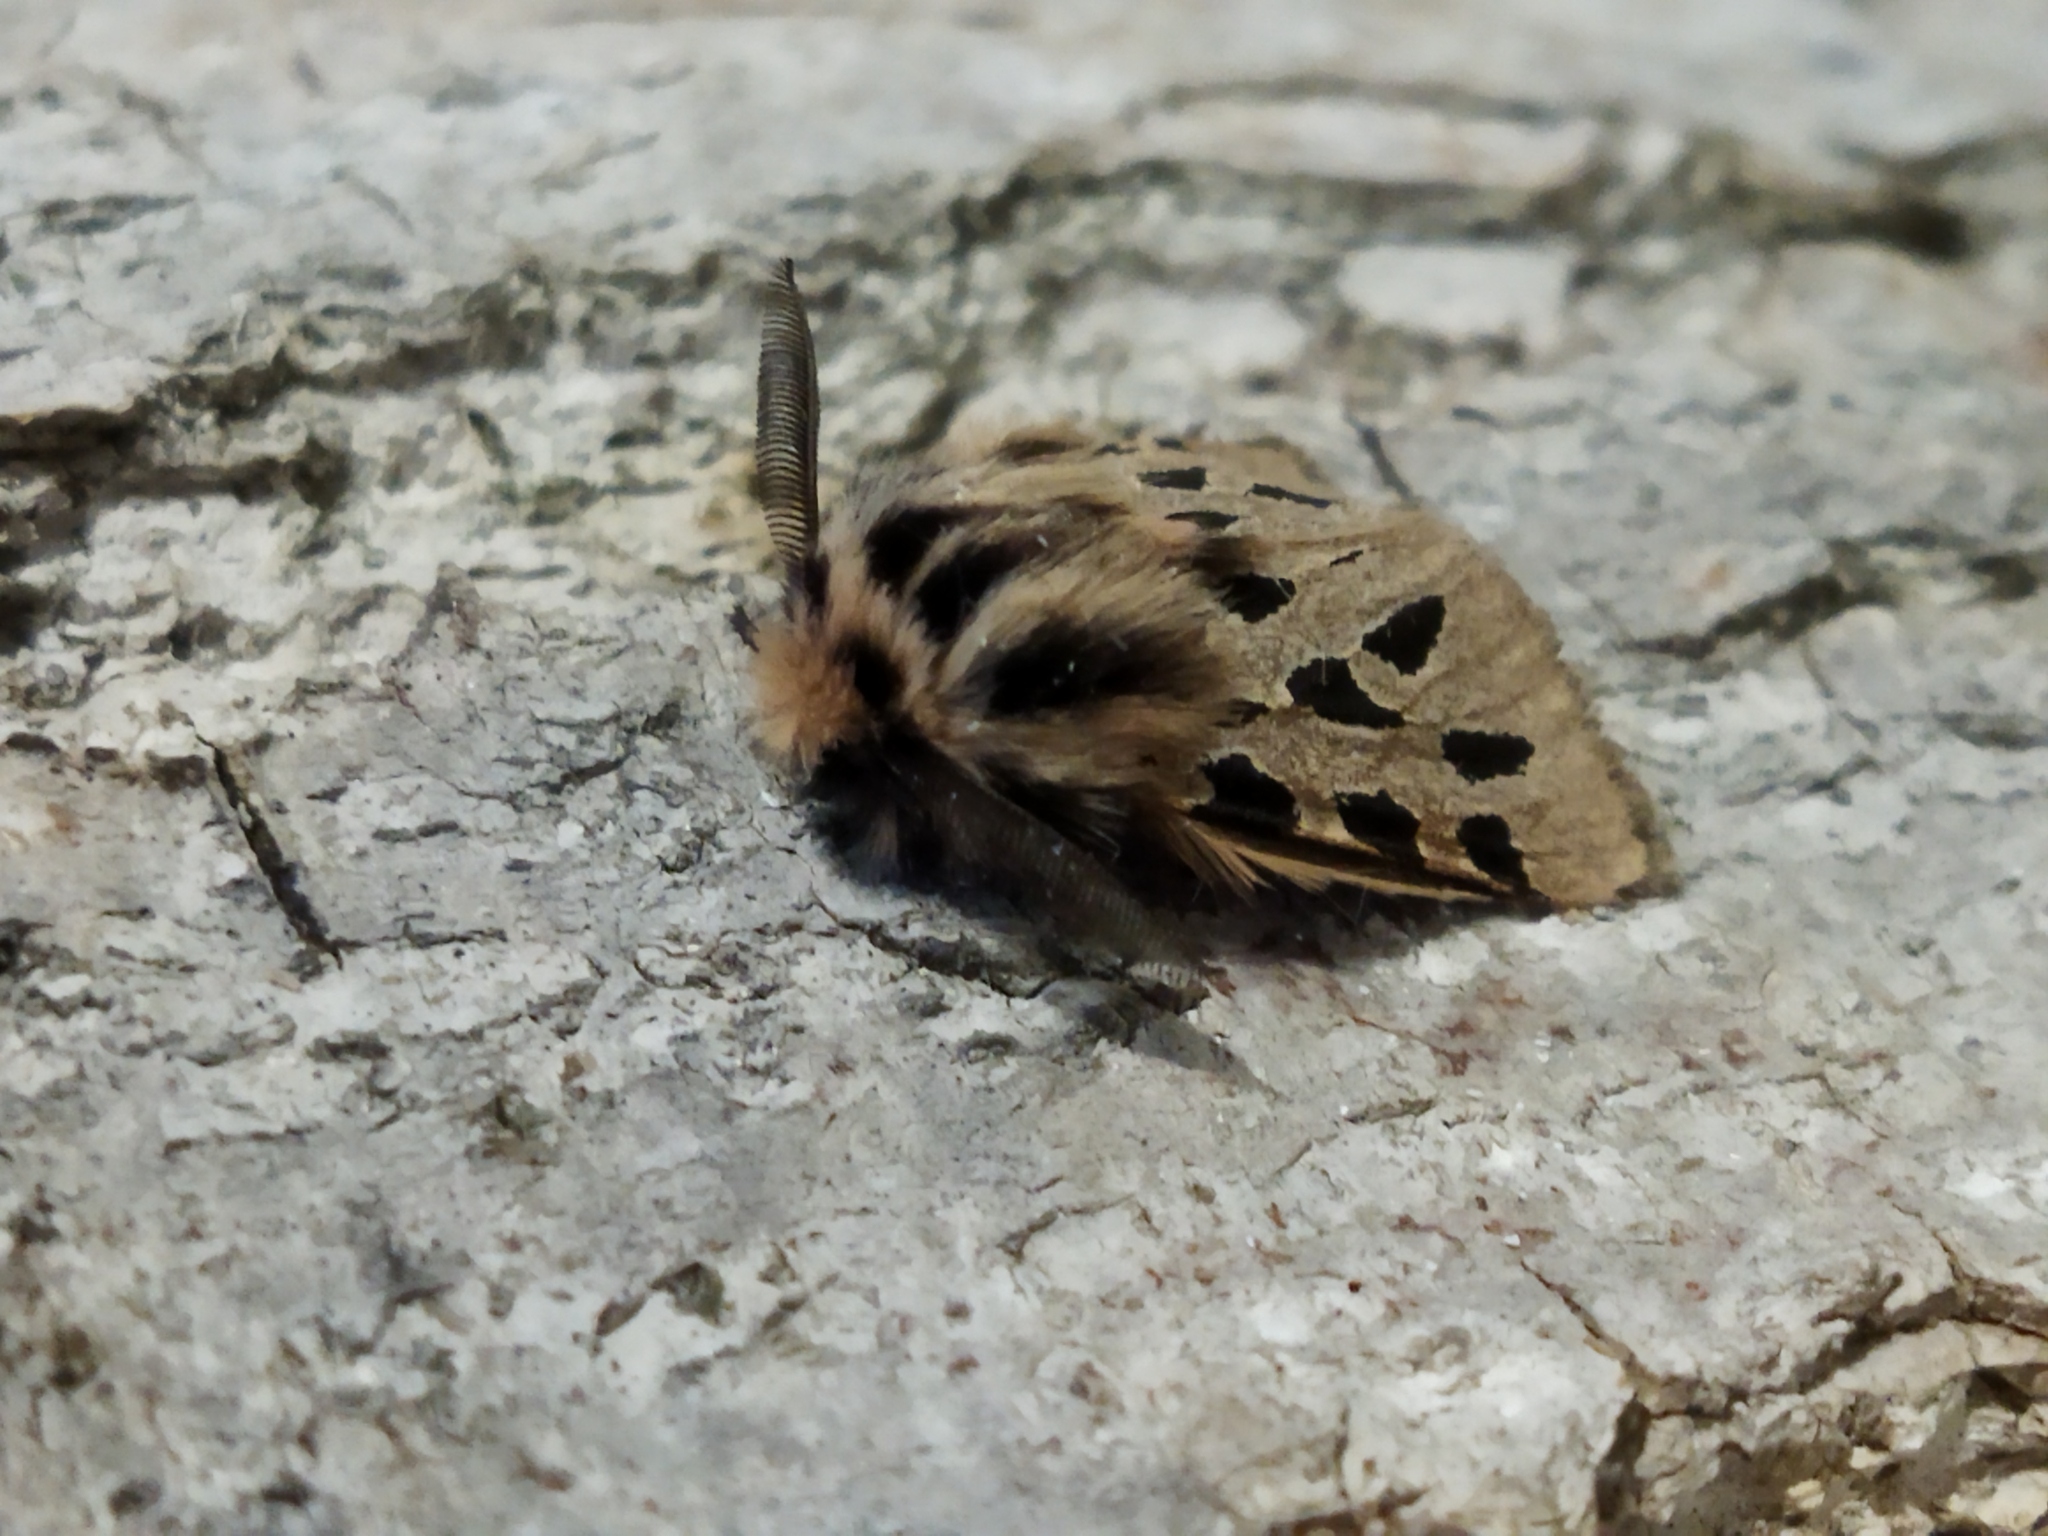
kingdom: Animalia
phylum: Arthropoda
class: Insecta
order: Lepidoptera
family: Erebidae
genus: Ocnogyna
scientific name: Ocnogyna parasita
